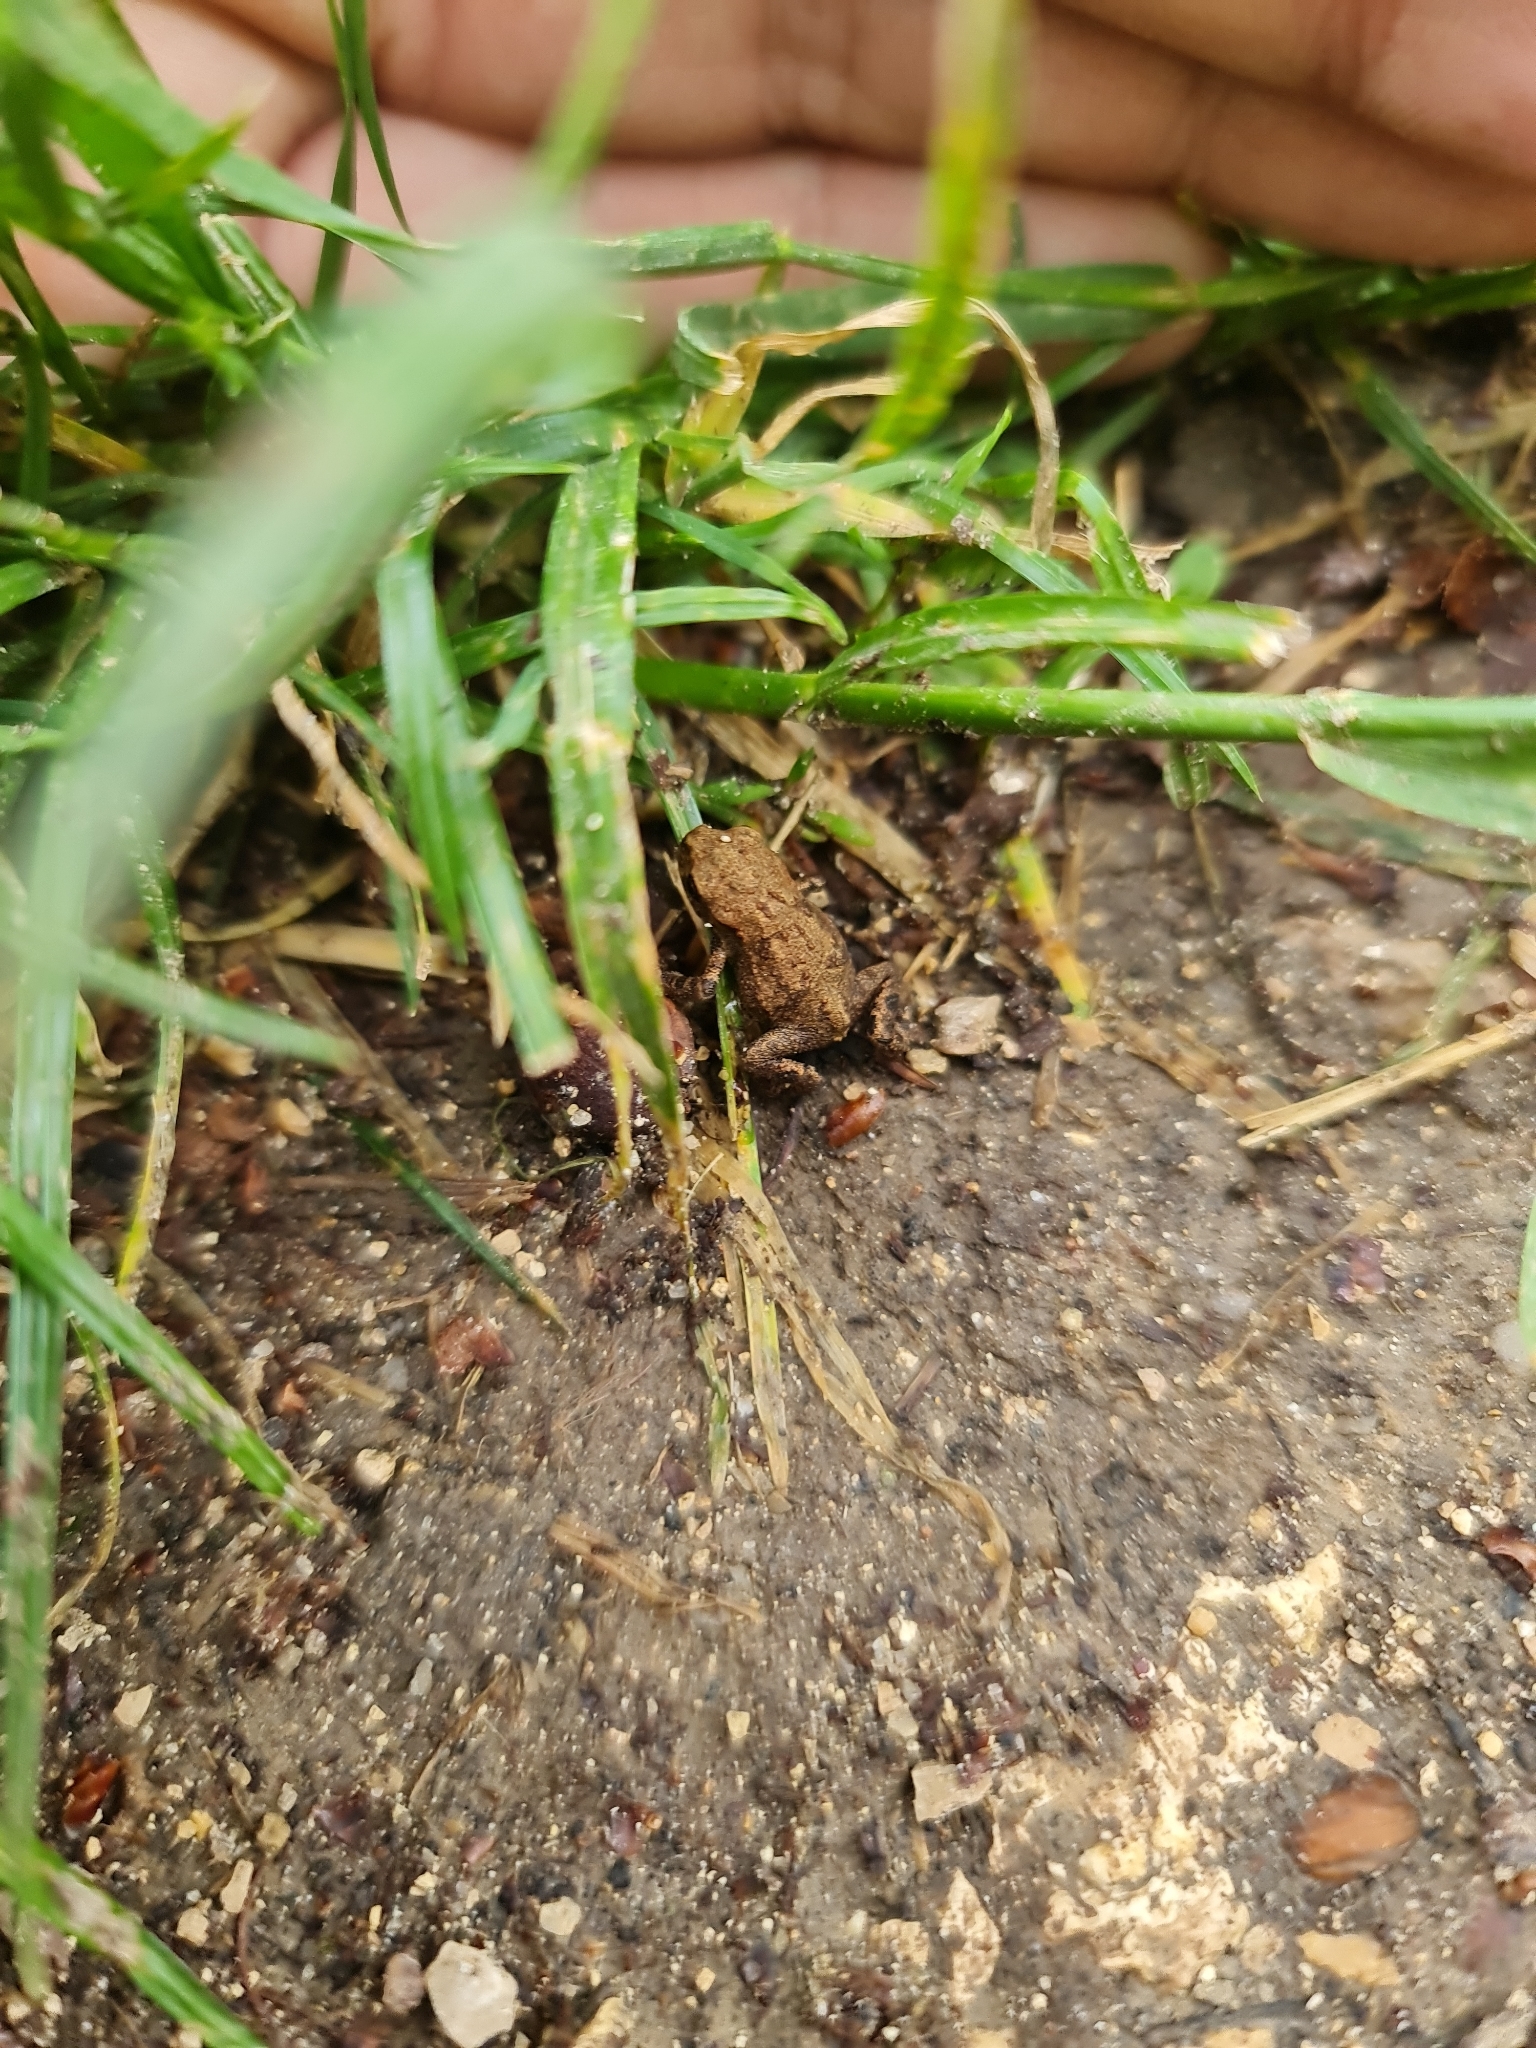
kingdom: Animalia
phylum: Chordata
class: Amphibia
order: Anura
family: Bufonidae
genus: Bufo
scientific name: Bufo bufo
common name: Common toad
